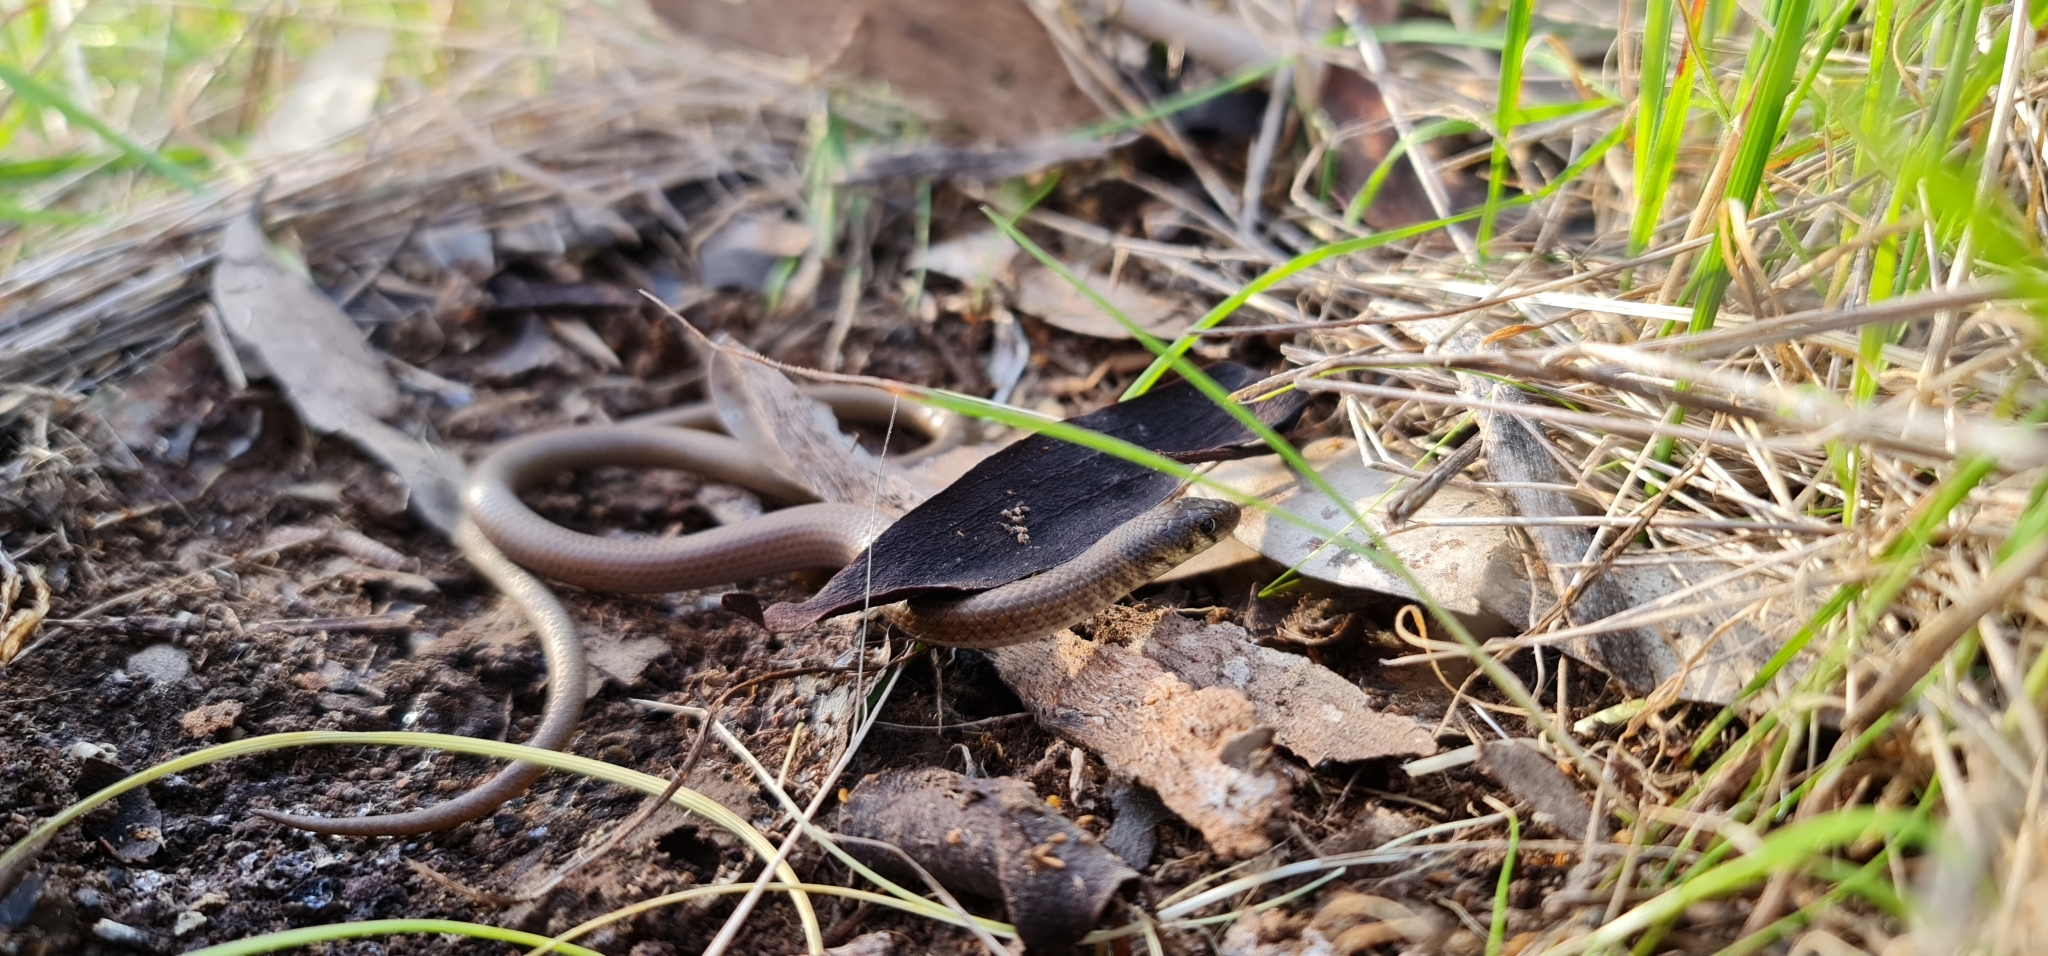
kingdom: Animalia
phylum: Chordata
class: Squamata
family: Pygopodidae
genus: Delma
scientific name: Delma molleri
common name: Gulfs delma
